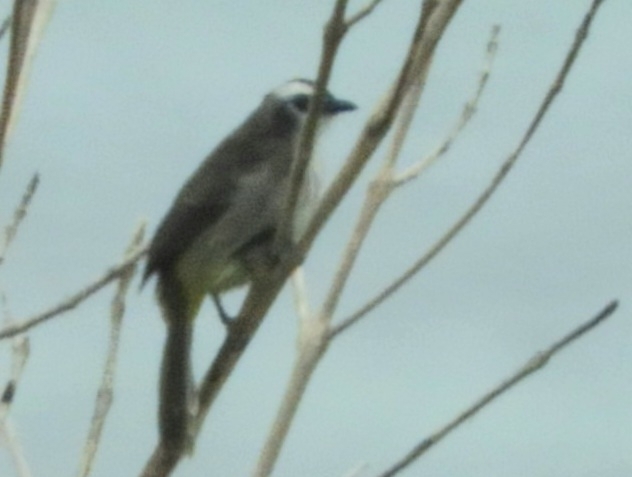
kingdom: Animalia
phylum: Chordata
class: Aves
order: Passeriformes
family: Pycnonotidae
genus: Pycnonotus
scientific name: Pycnonotus goiavier
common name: Yellow-vented bulbul
